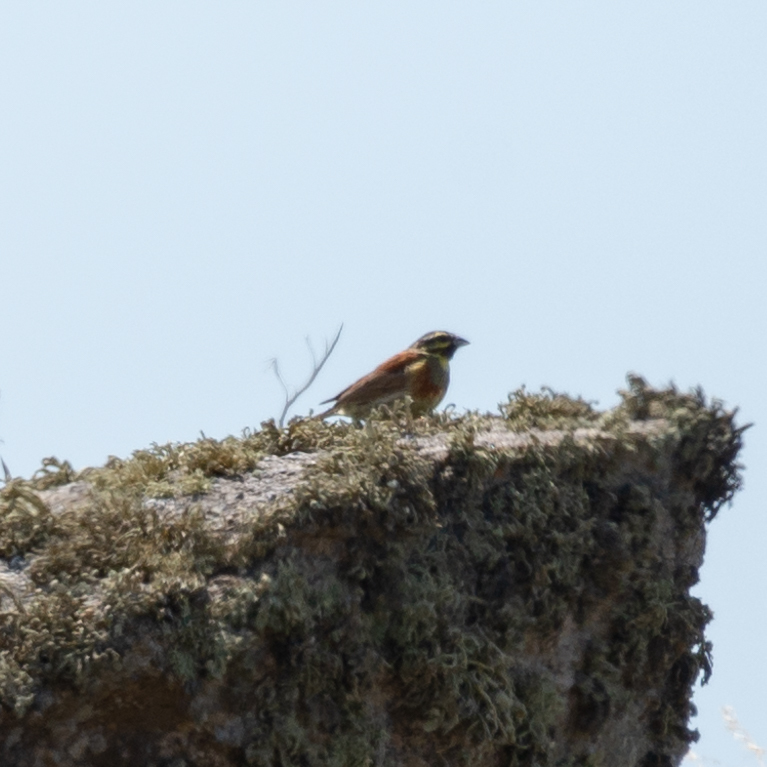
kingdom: Animalia
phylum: Chordata
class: Aves
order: Passeriformes
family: Emberizidae
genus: Emberiza
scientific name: Emberiza cirlus
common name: Cirl bunting
